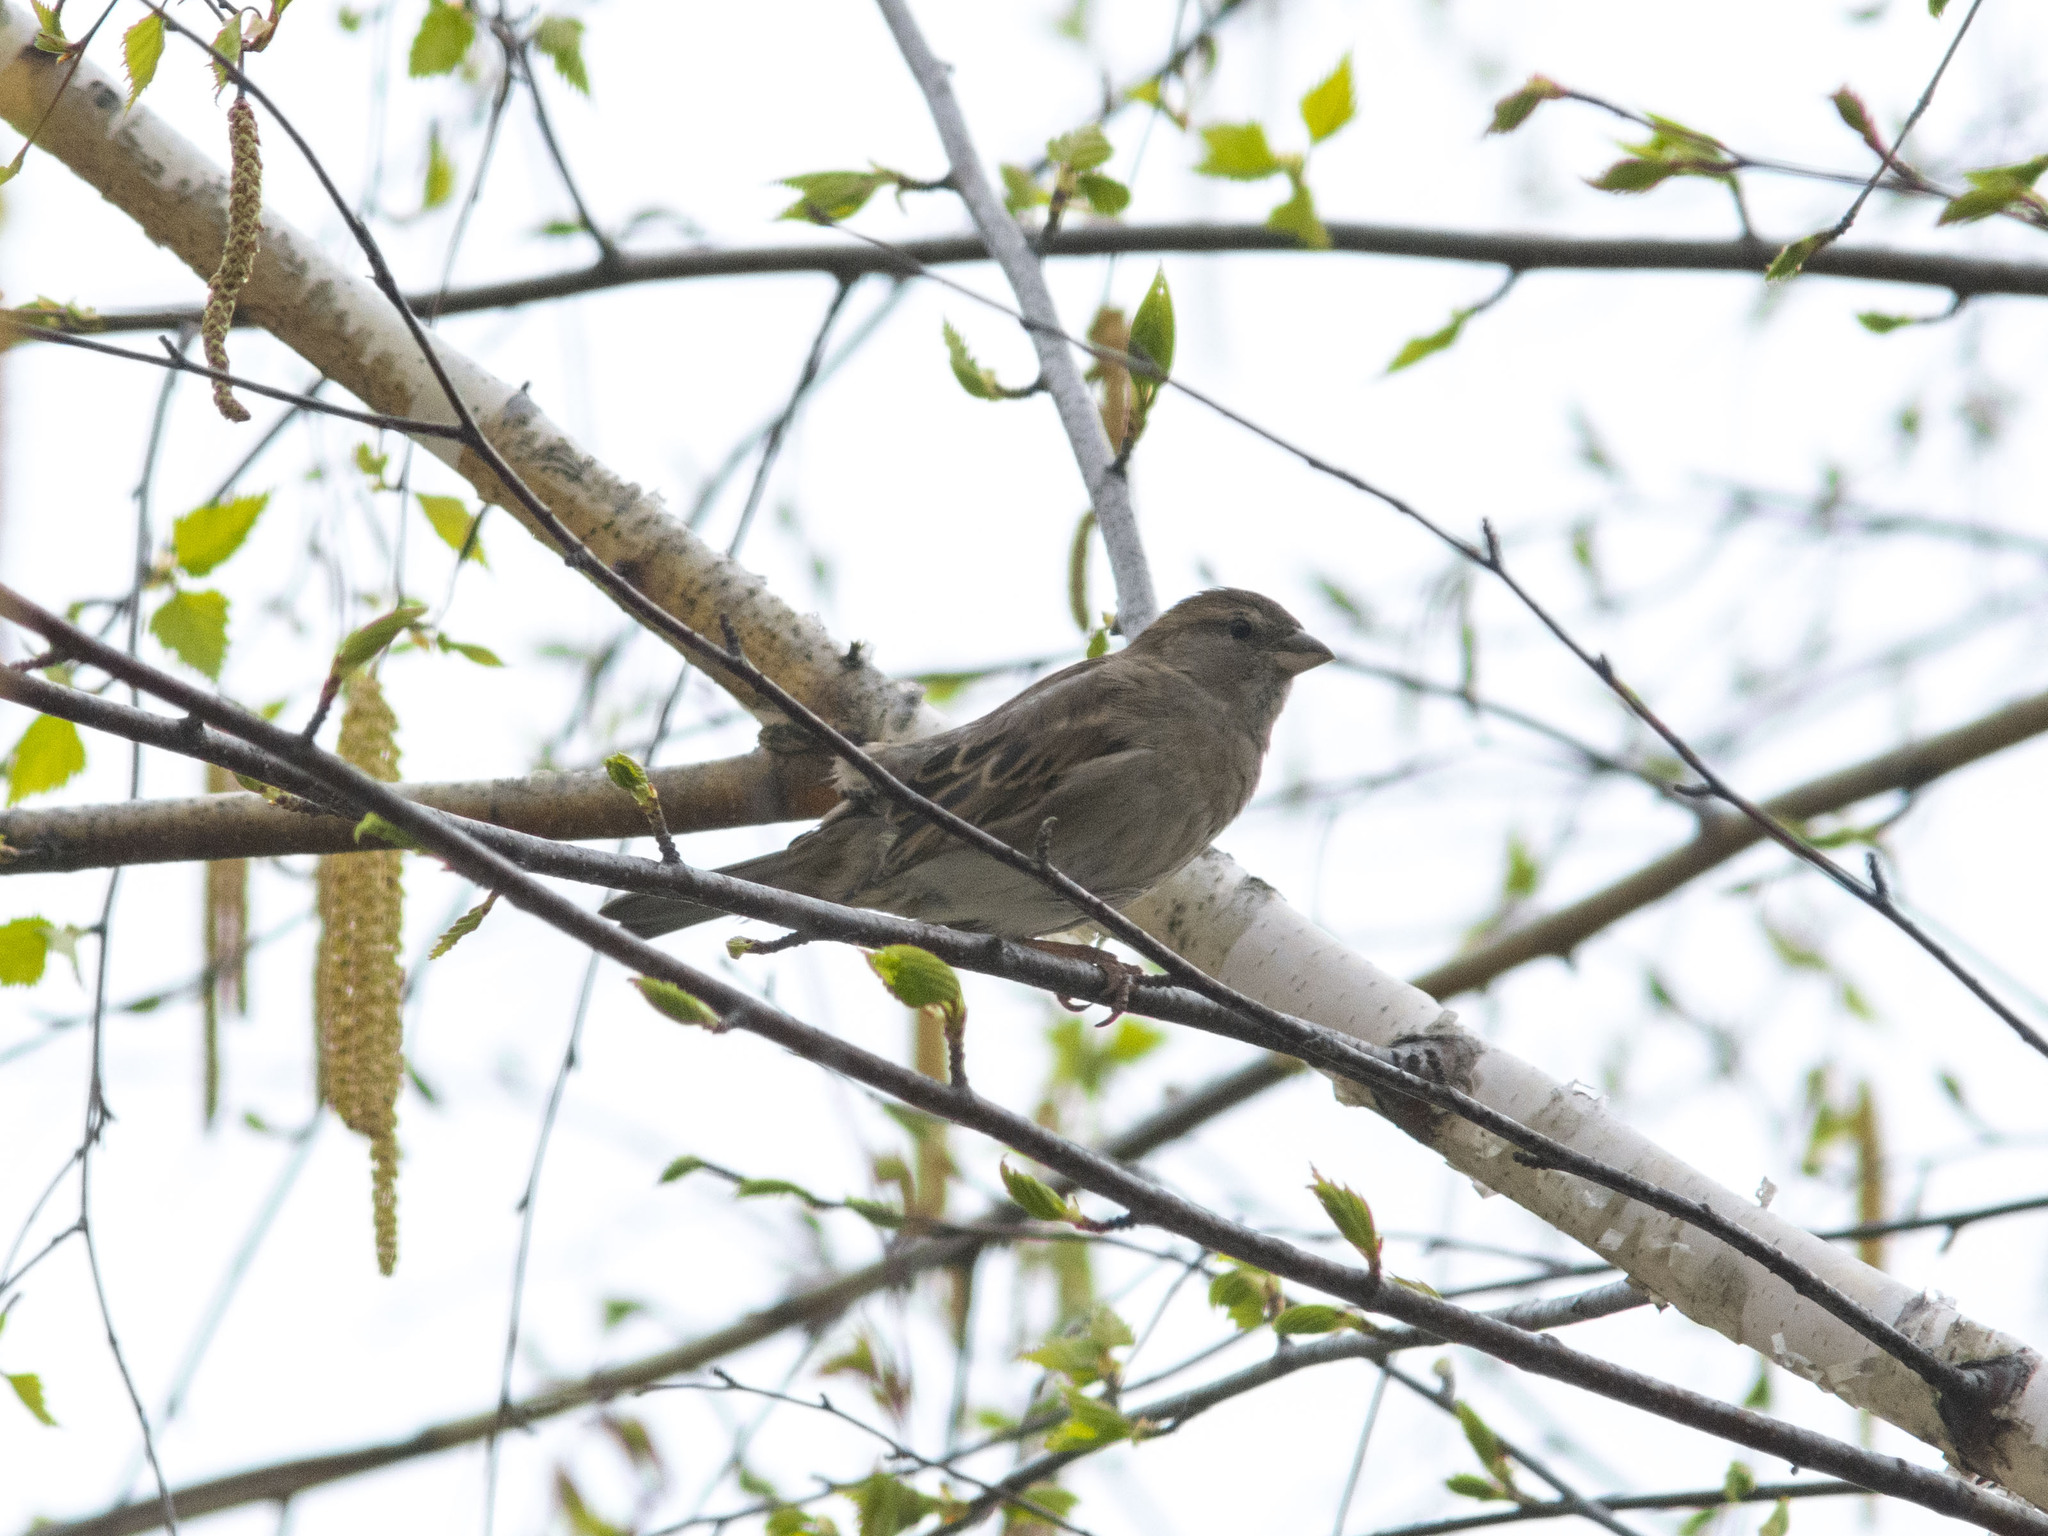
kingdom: Animalia
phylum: Chordata
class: Aves
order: Passeriformes
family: Passeridae
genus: Passer
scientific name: Passer domesticus
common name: House sparrow
